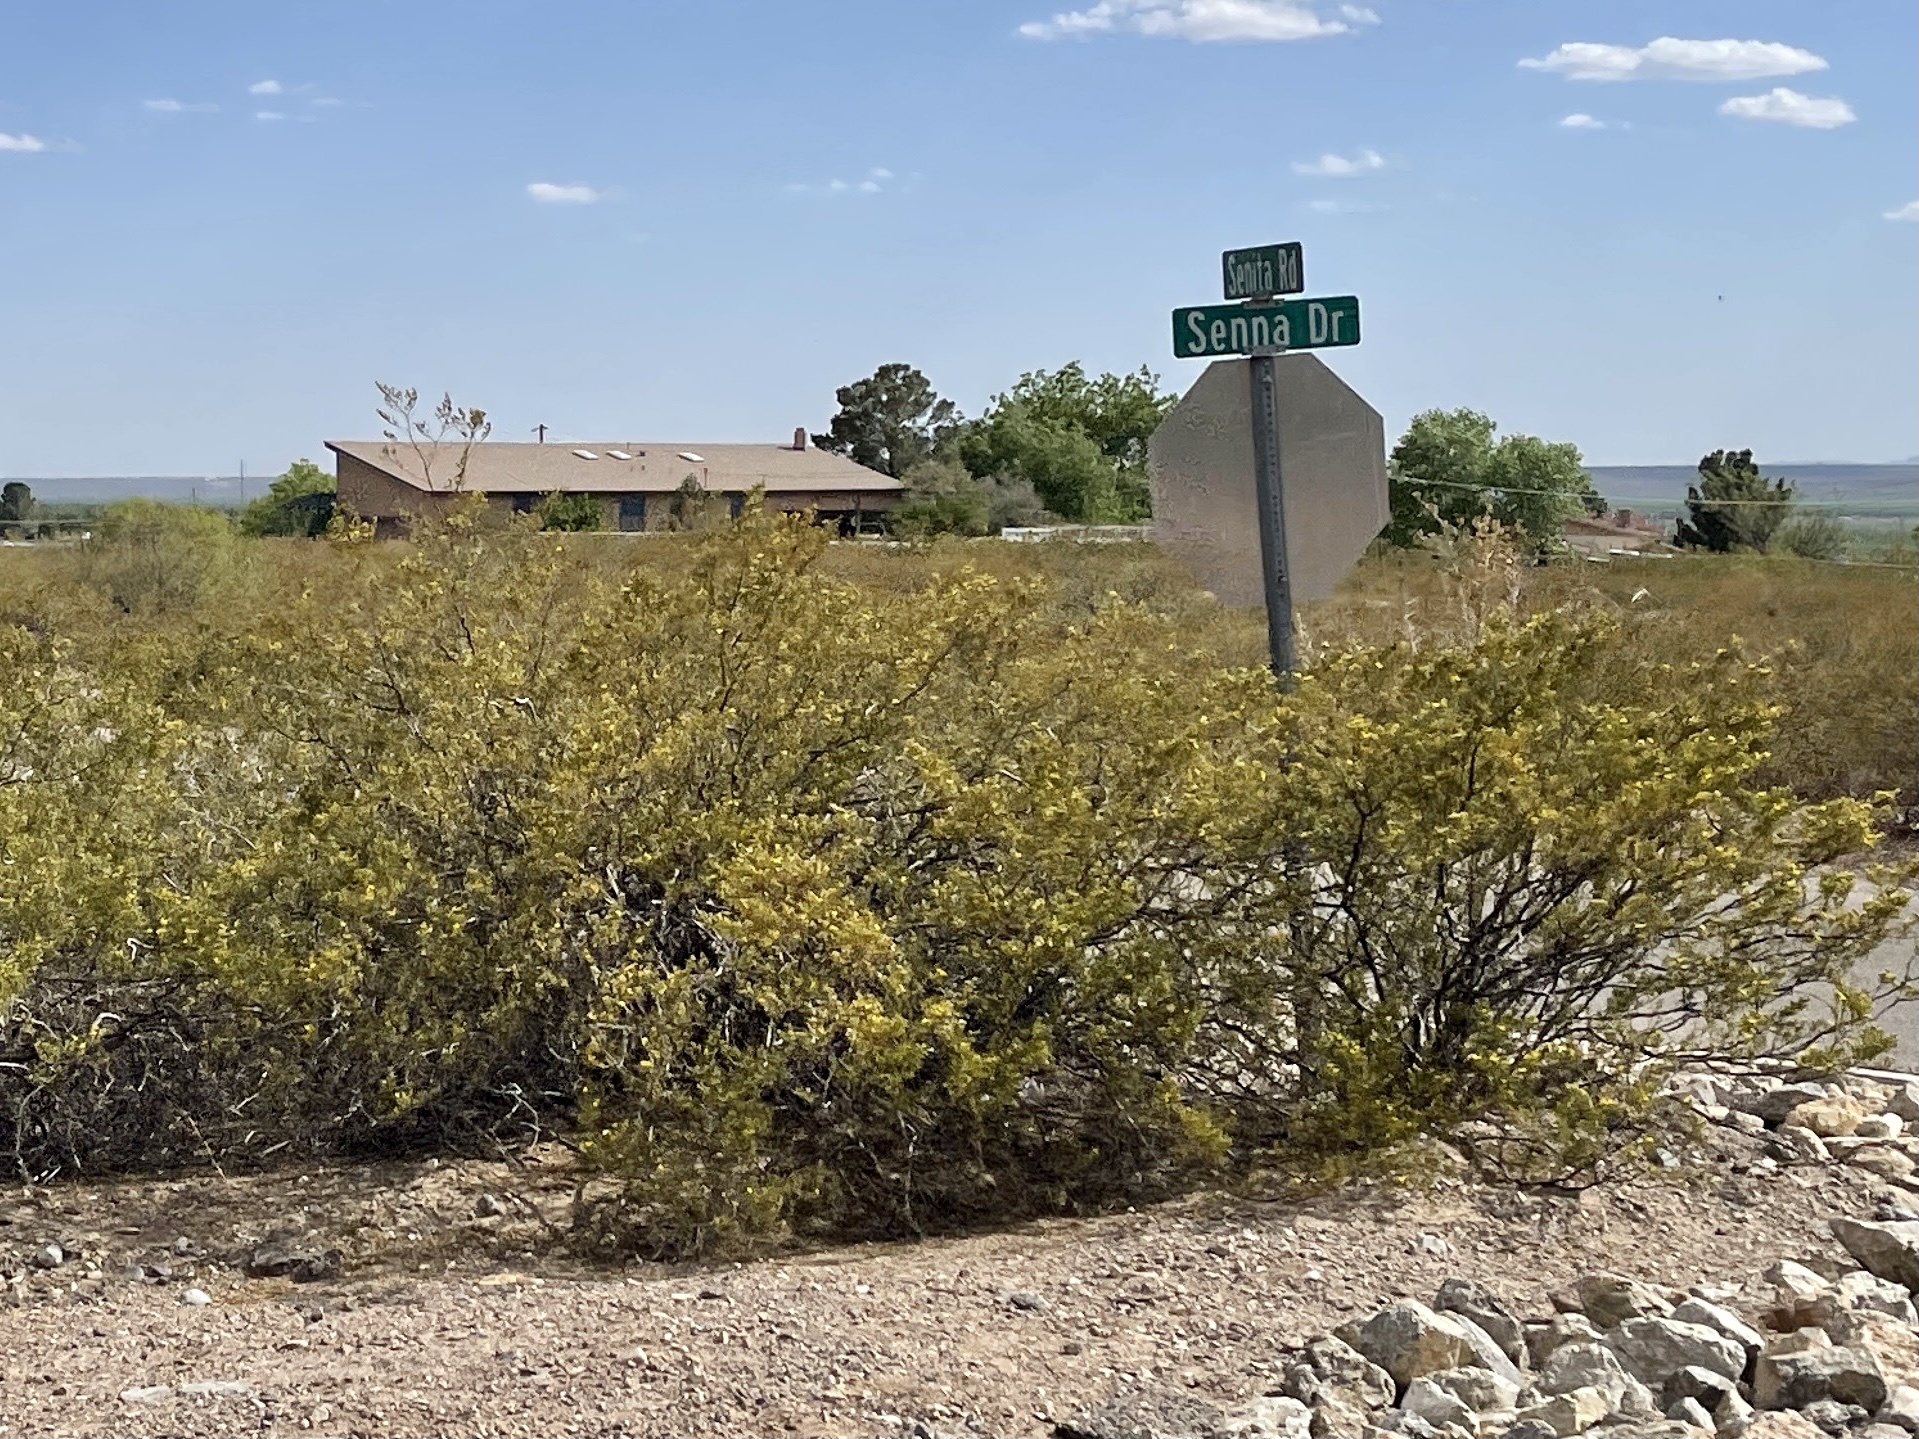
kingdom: Plantae
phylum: Tracheophyta
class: Magnoliopsida
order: Zygophyllales
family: Zygophyllaceae
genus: Larrea
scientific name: Larrea tridentata
